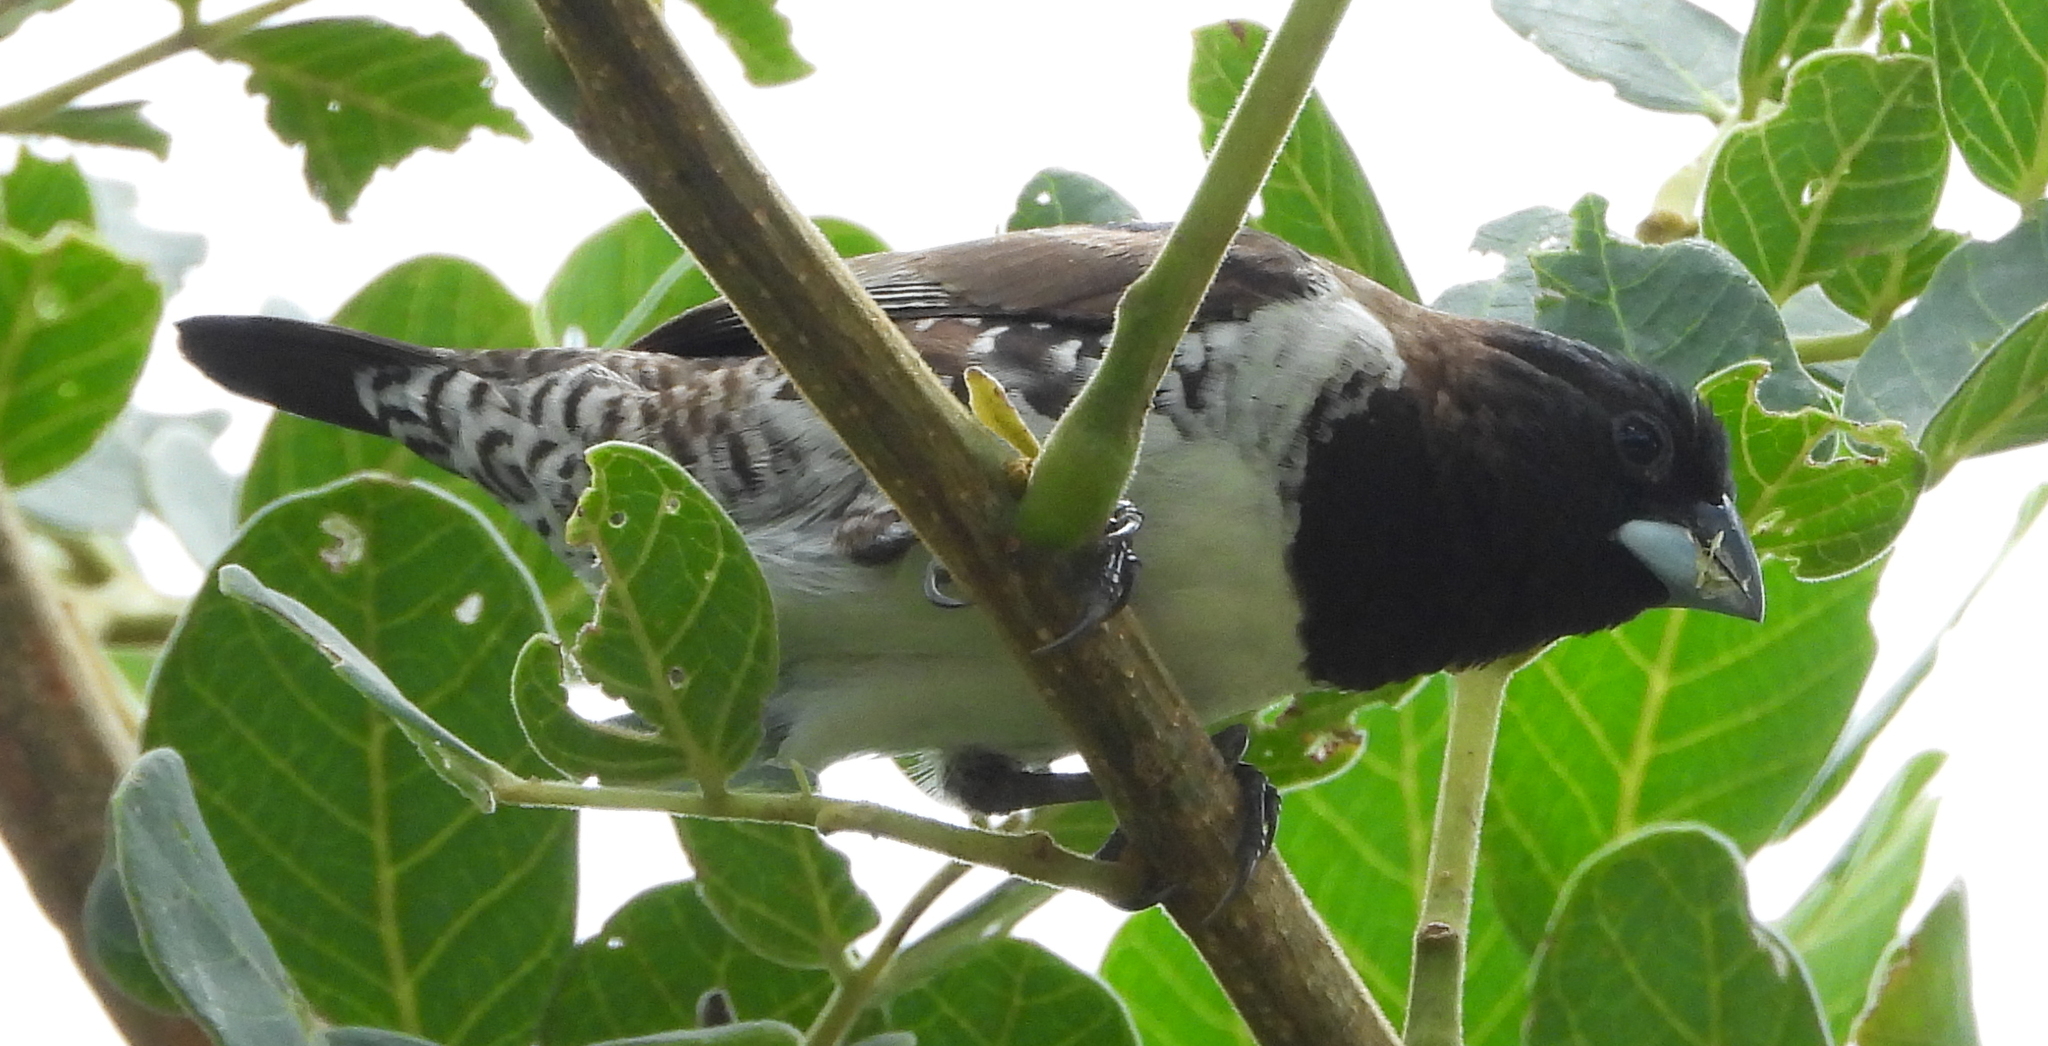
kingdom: Animalia
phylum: Chordata
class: Aves
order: Passeriformes
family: Estrildidae
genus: Lonchura
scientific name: Lonchura cucullata
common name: Bronze mannikin
